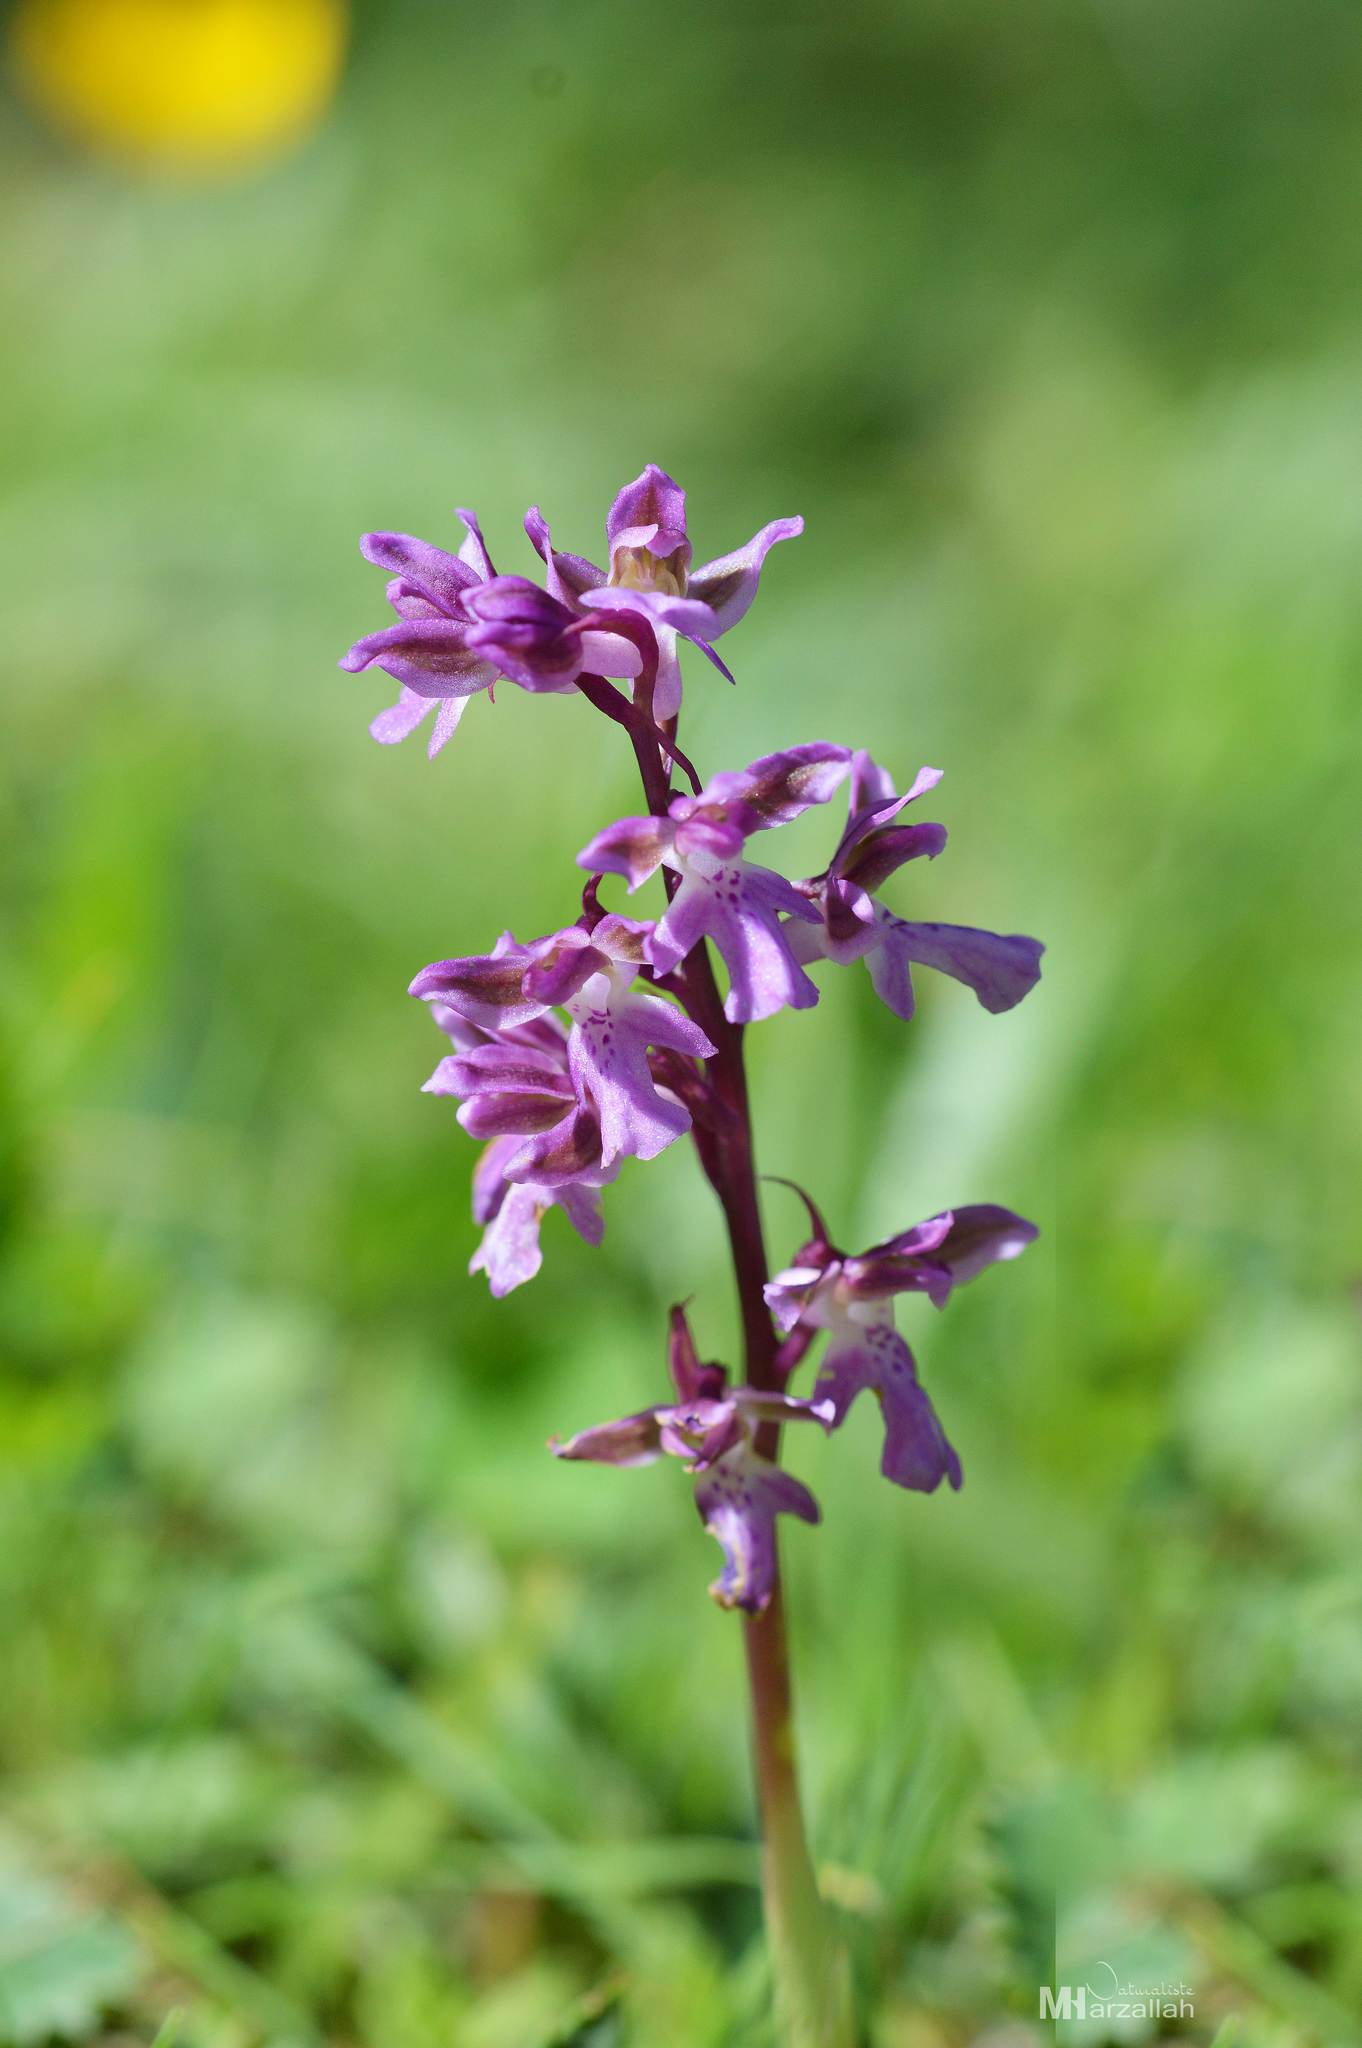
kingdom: Plantae
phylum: Tracheophyta
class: Liliopsida
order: Asparagales
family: Orchidaceae
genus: Orchis
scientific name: Orchis patens
